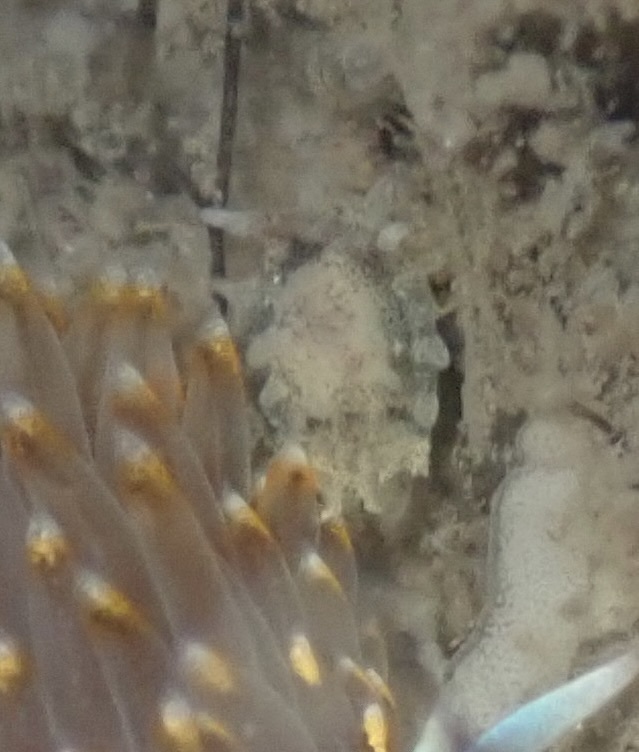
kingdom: Animalia
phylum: Mollusca
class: Gastropoda
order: Nudibranchia
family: Goniodorididae
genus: Okenia
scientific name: Okenia
